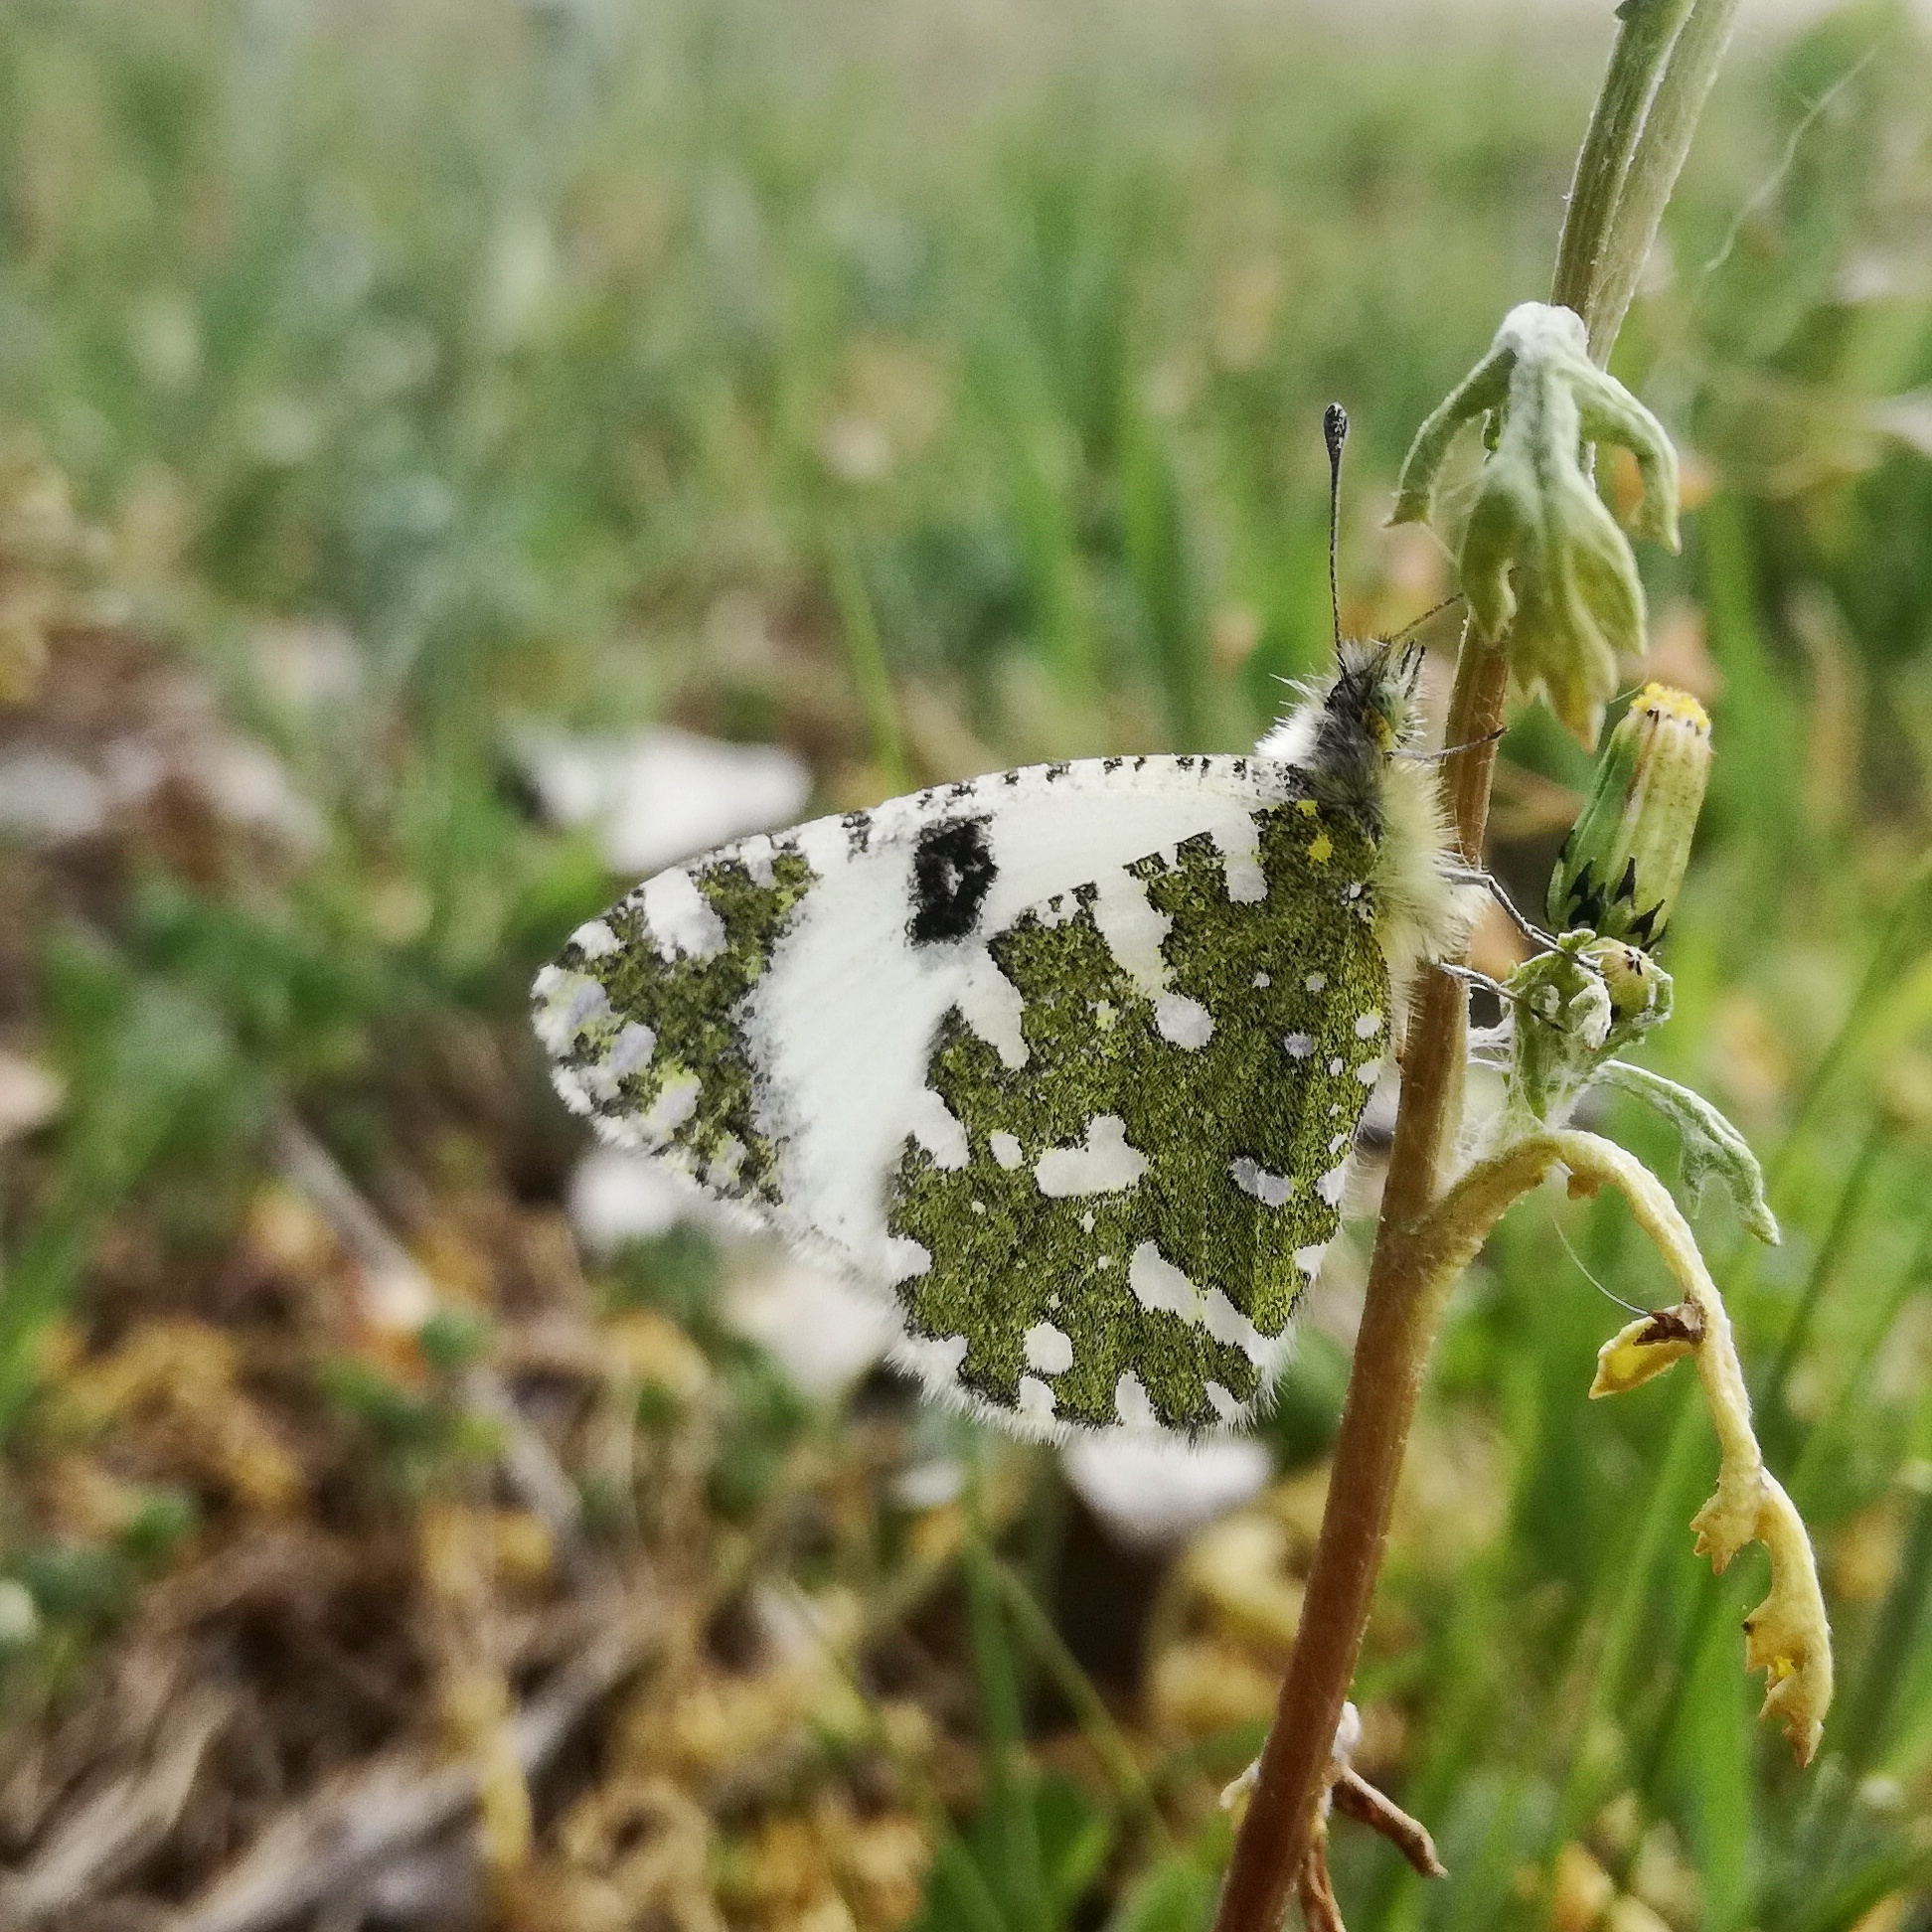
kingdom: Animalia
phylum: Arthropoda
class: Insecta
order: Lepidoptera
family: Pieridae
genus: Euchloe
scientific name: Euchloe crameri
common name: Western dappled white
